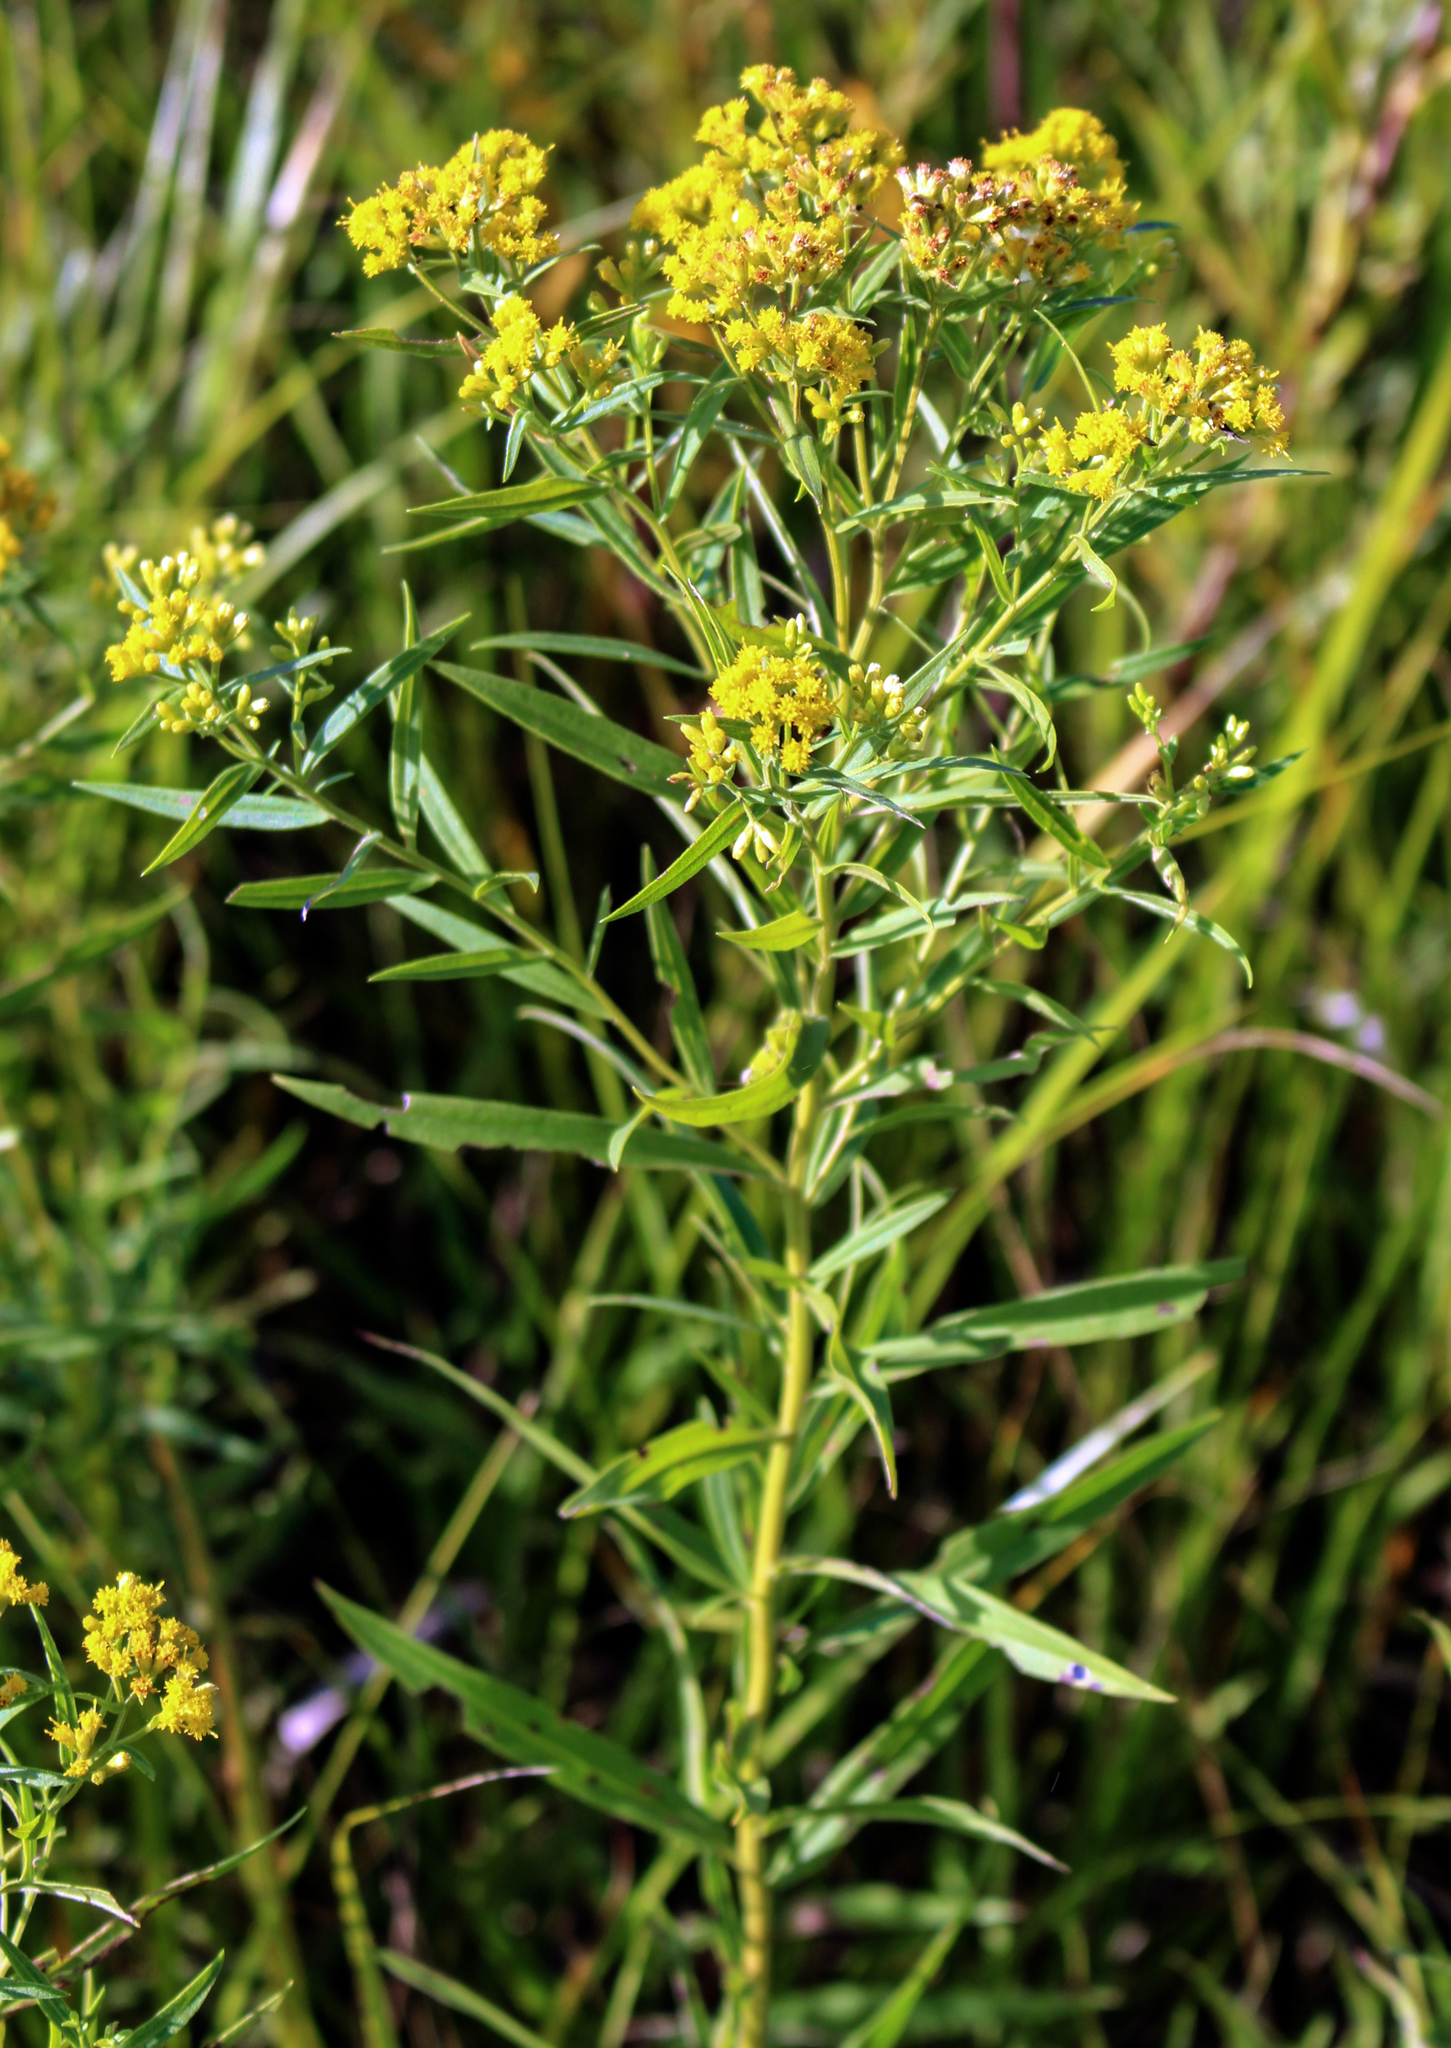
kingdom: Plantae
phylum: Tracheophyta
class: Magnoliopsida
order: Asterales
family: Asteraceae
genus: Euthamia
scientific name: Euthamia graminifolia
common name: Common goldentop
